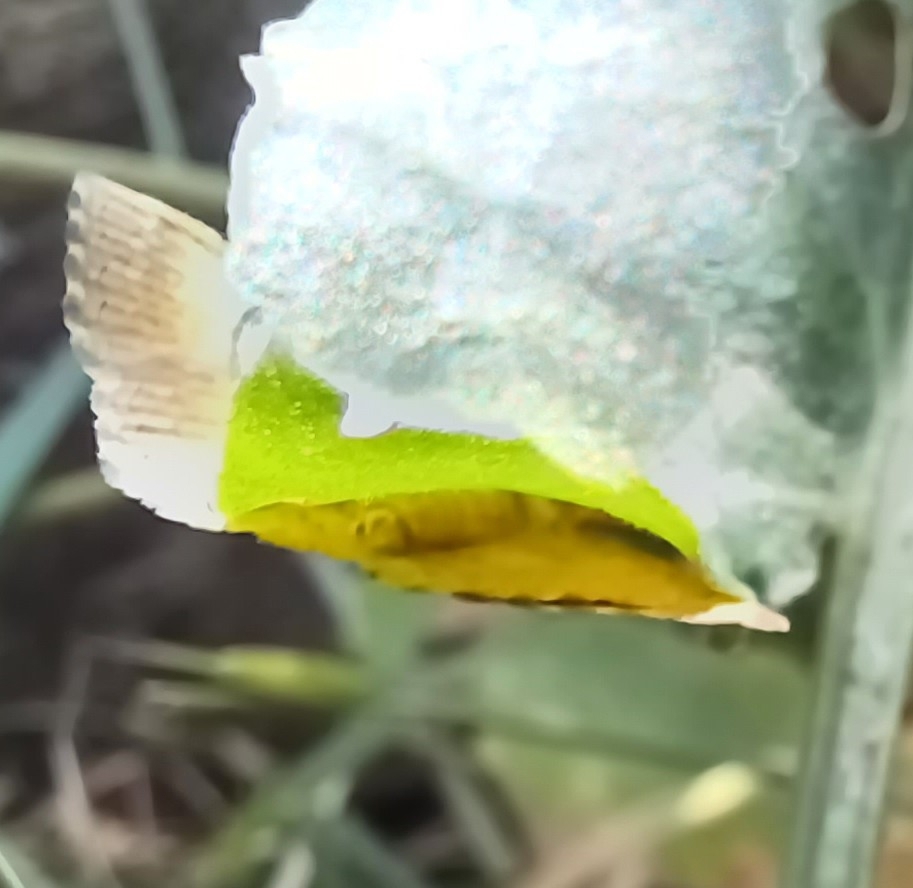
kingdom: Animalia
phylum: Arthropoda
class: Insecta
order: Lepidoptera
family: Geometridae
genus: Camptogramma
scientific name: Camptogramma bilineata
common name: Yellow shell
